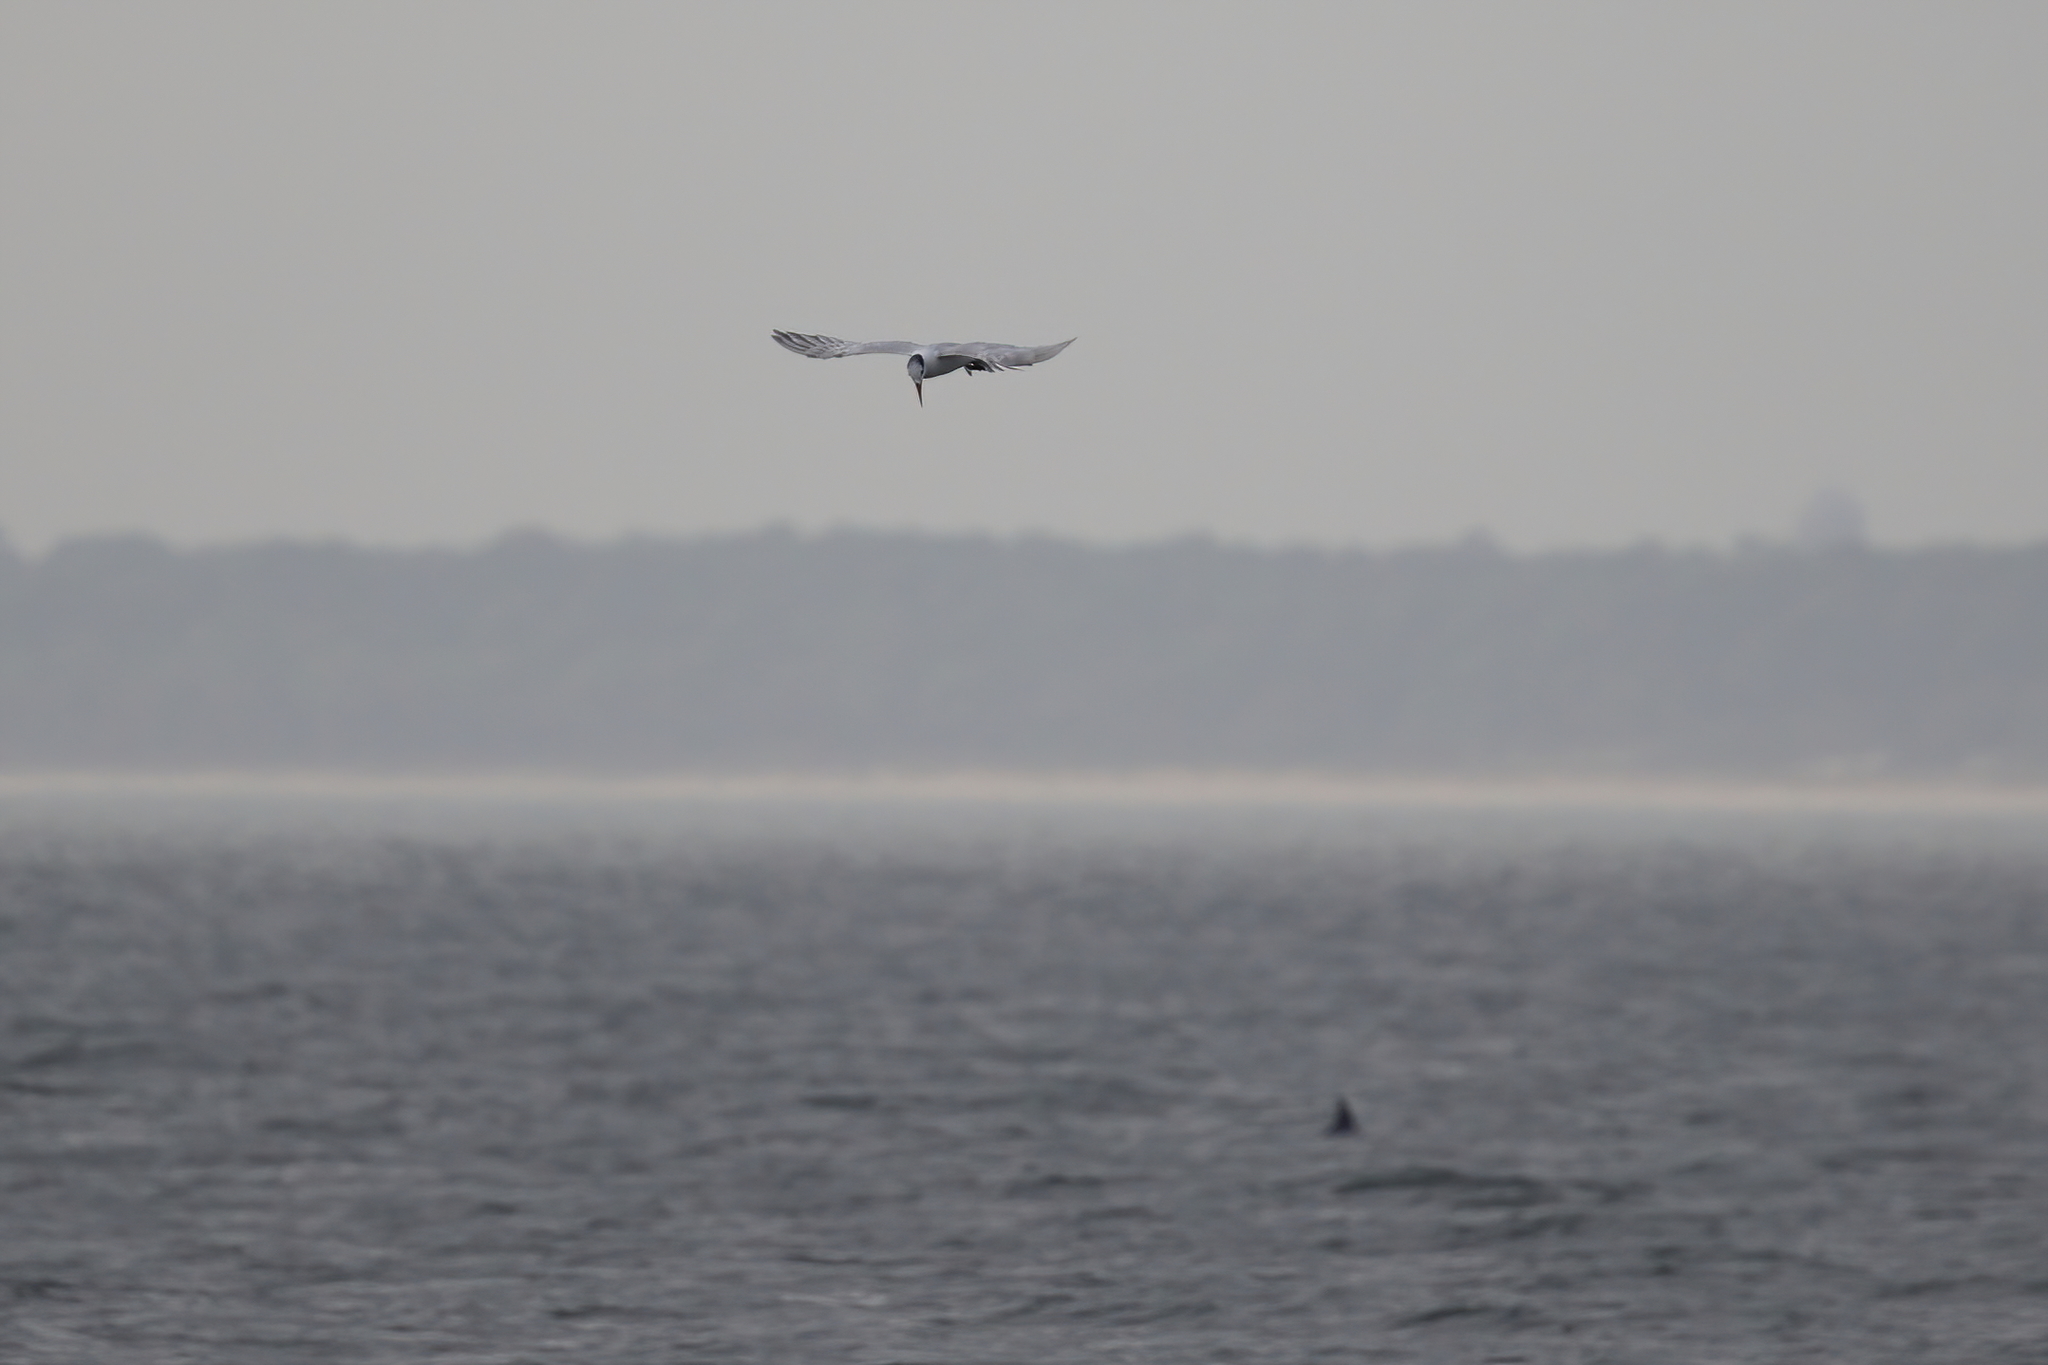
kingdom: Animalia
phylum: Chordata
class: Aves
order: Charadriiformes
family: Laridae
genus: Thalasseus
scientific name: Thalasseus maximus
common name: Royal tern
